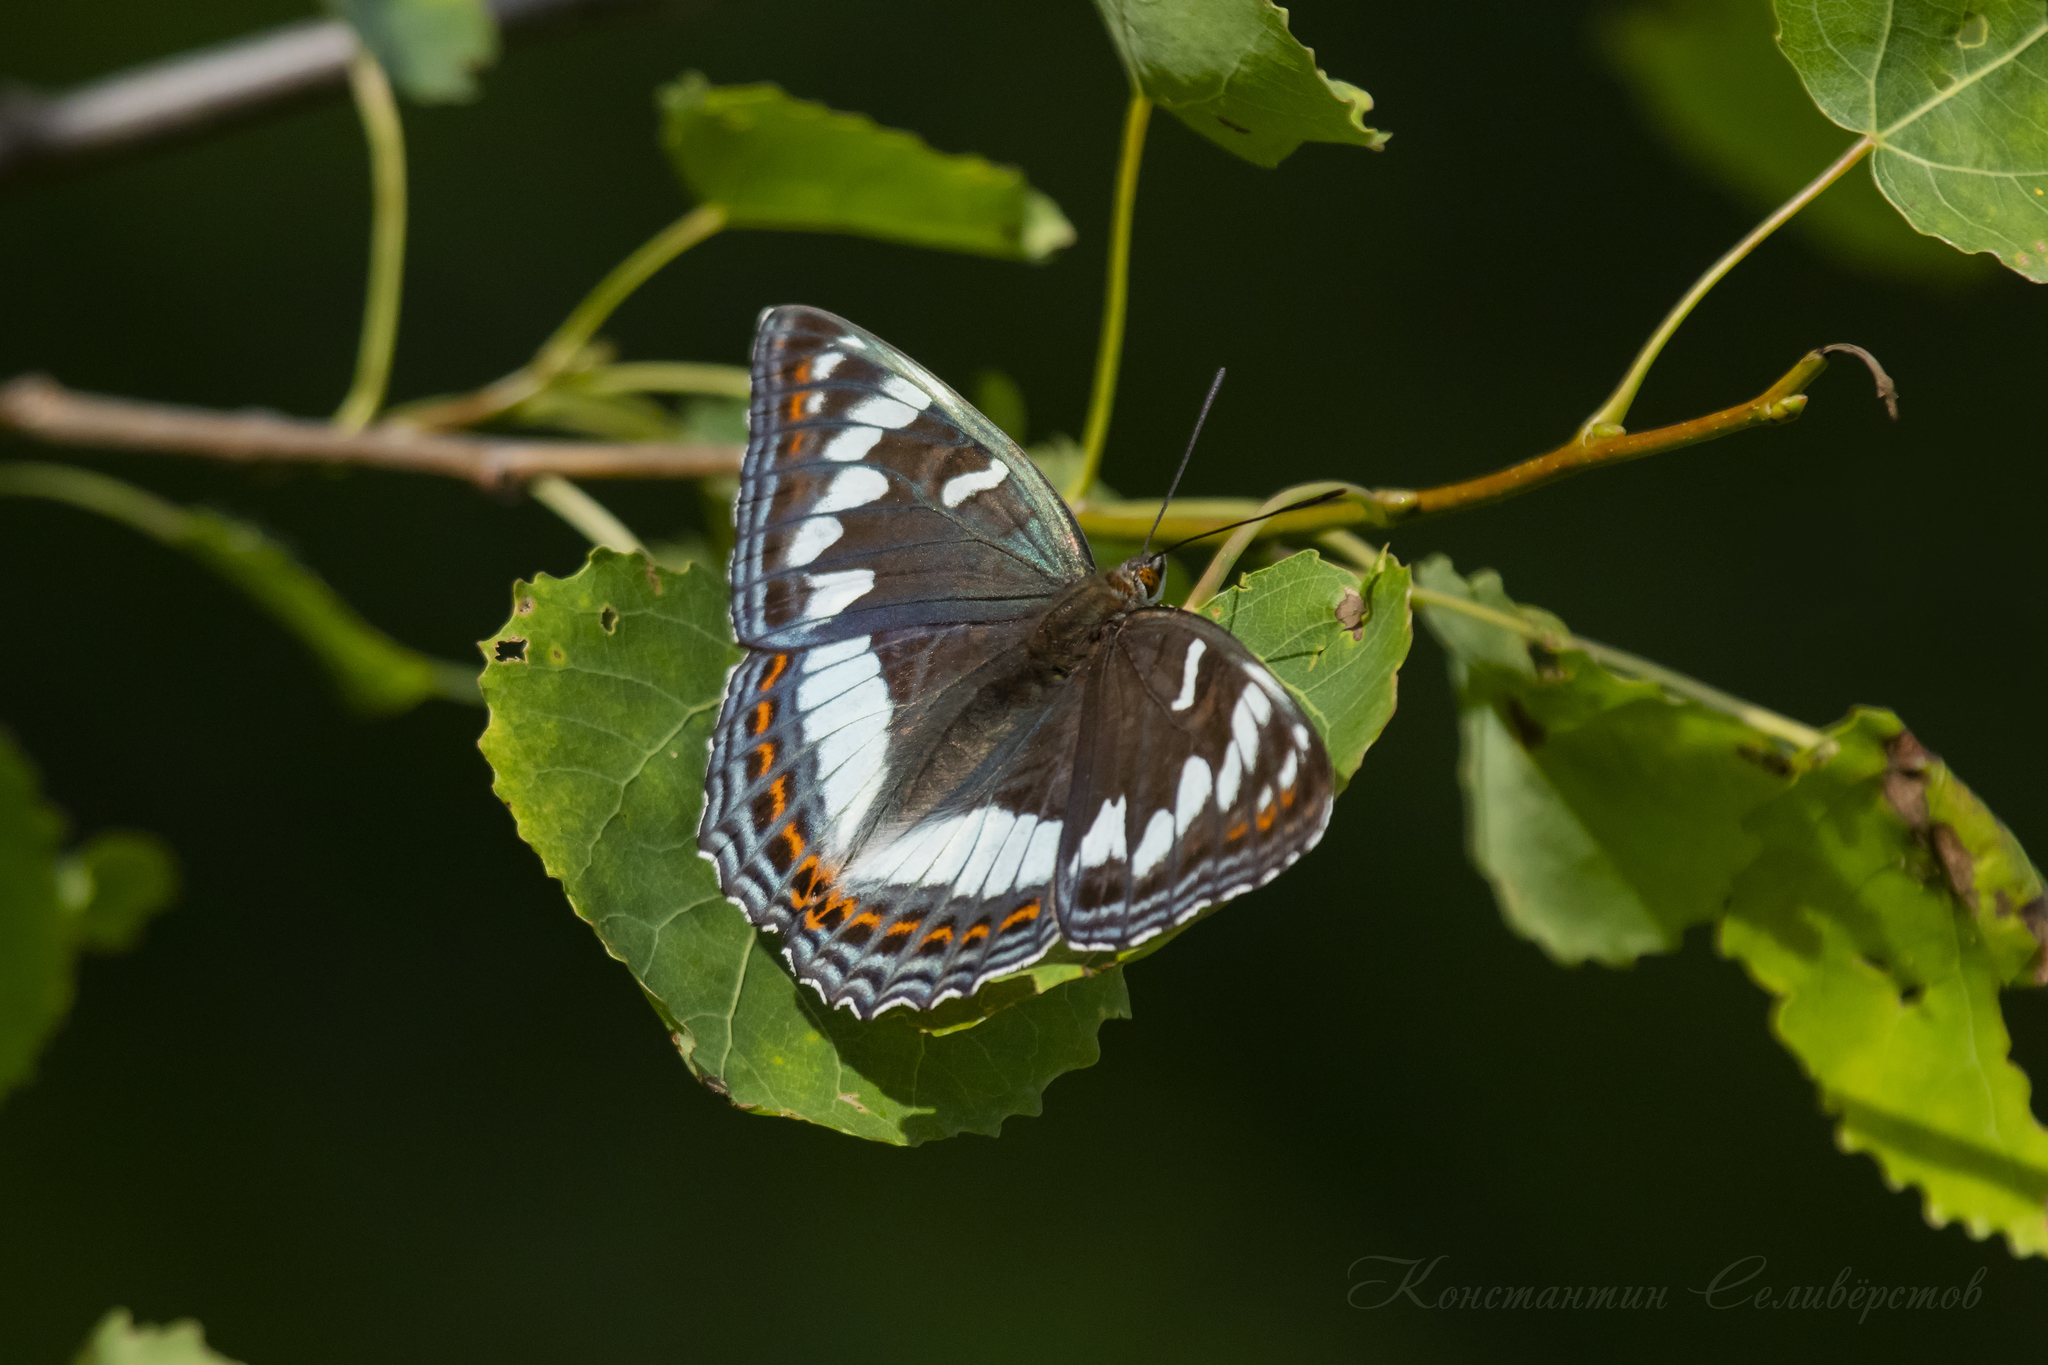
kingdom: Animalia
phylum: Arthropoda
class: Insecta
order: Lepidoptera
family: Nymphalidae
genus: Limenitis
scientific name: Limenitis populi
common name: Poplar admiral
